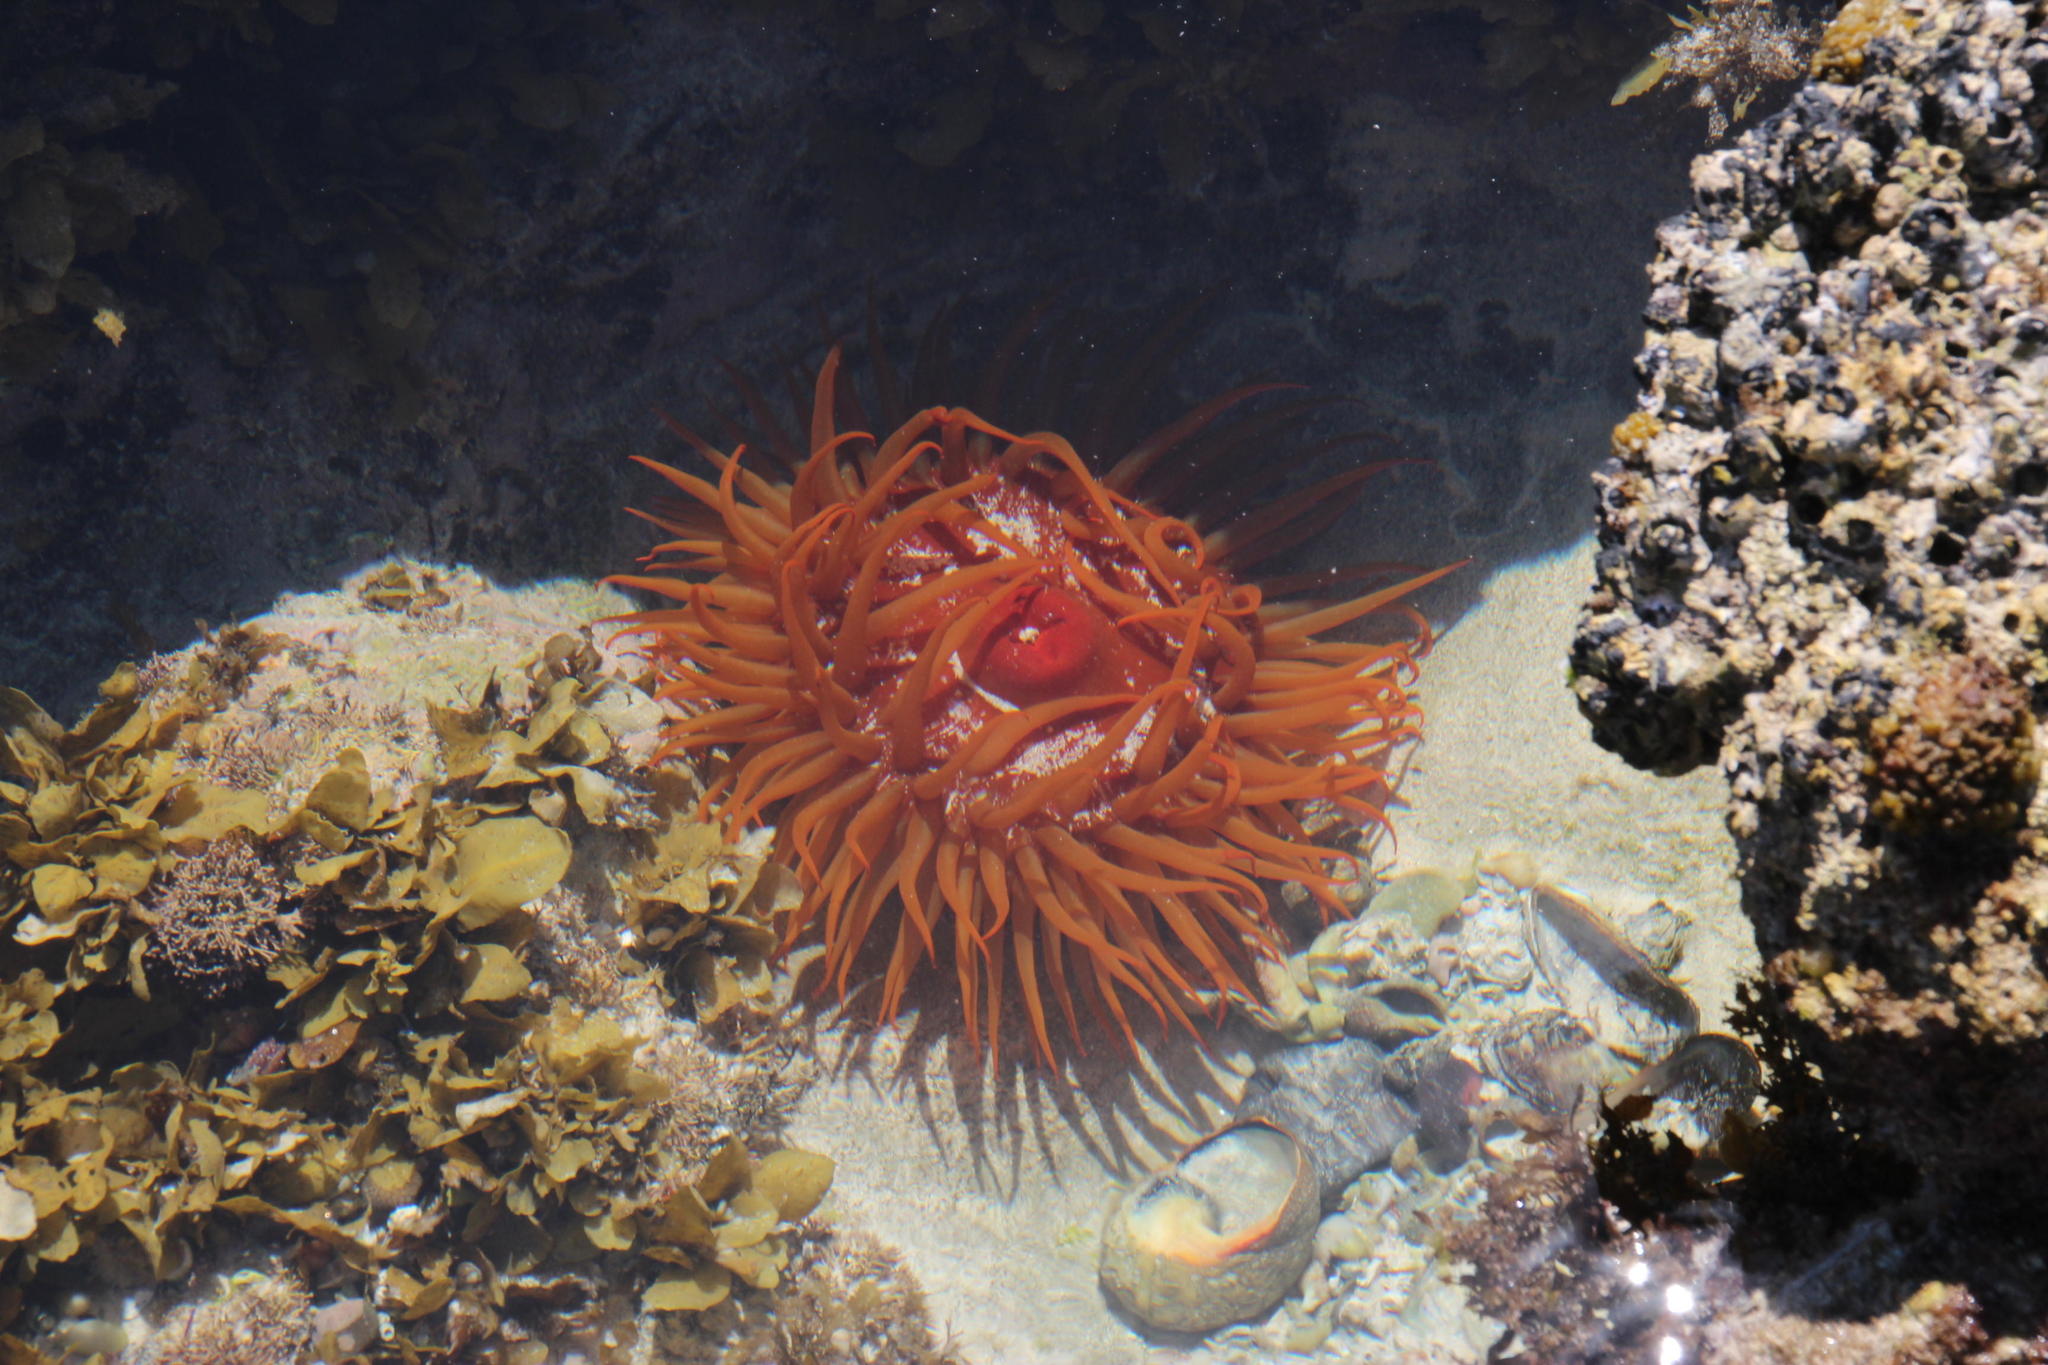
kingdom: Animalia
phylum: Cnidaria
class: Anthozoa
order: Actiniaria
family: Actiniidae
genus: Pseudactinia
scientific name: Pseudactinia flagellifera
